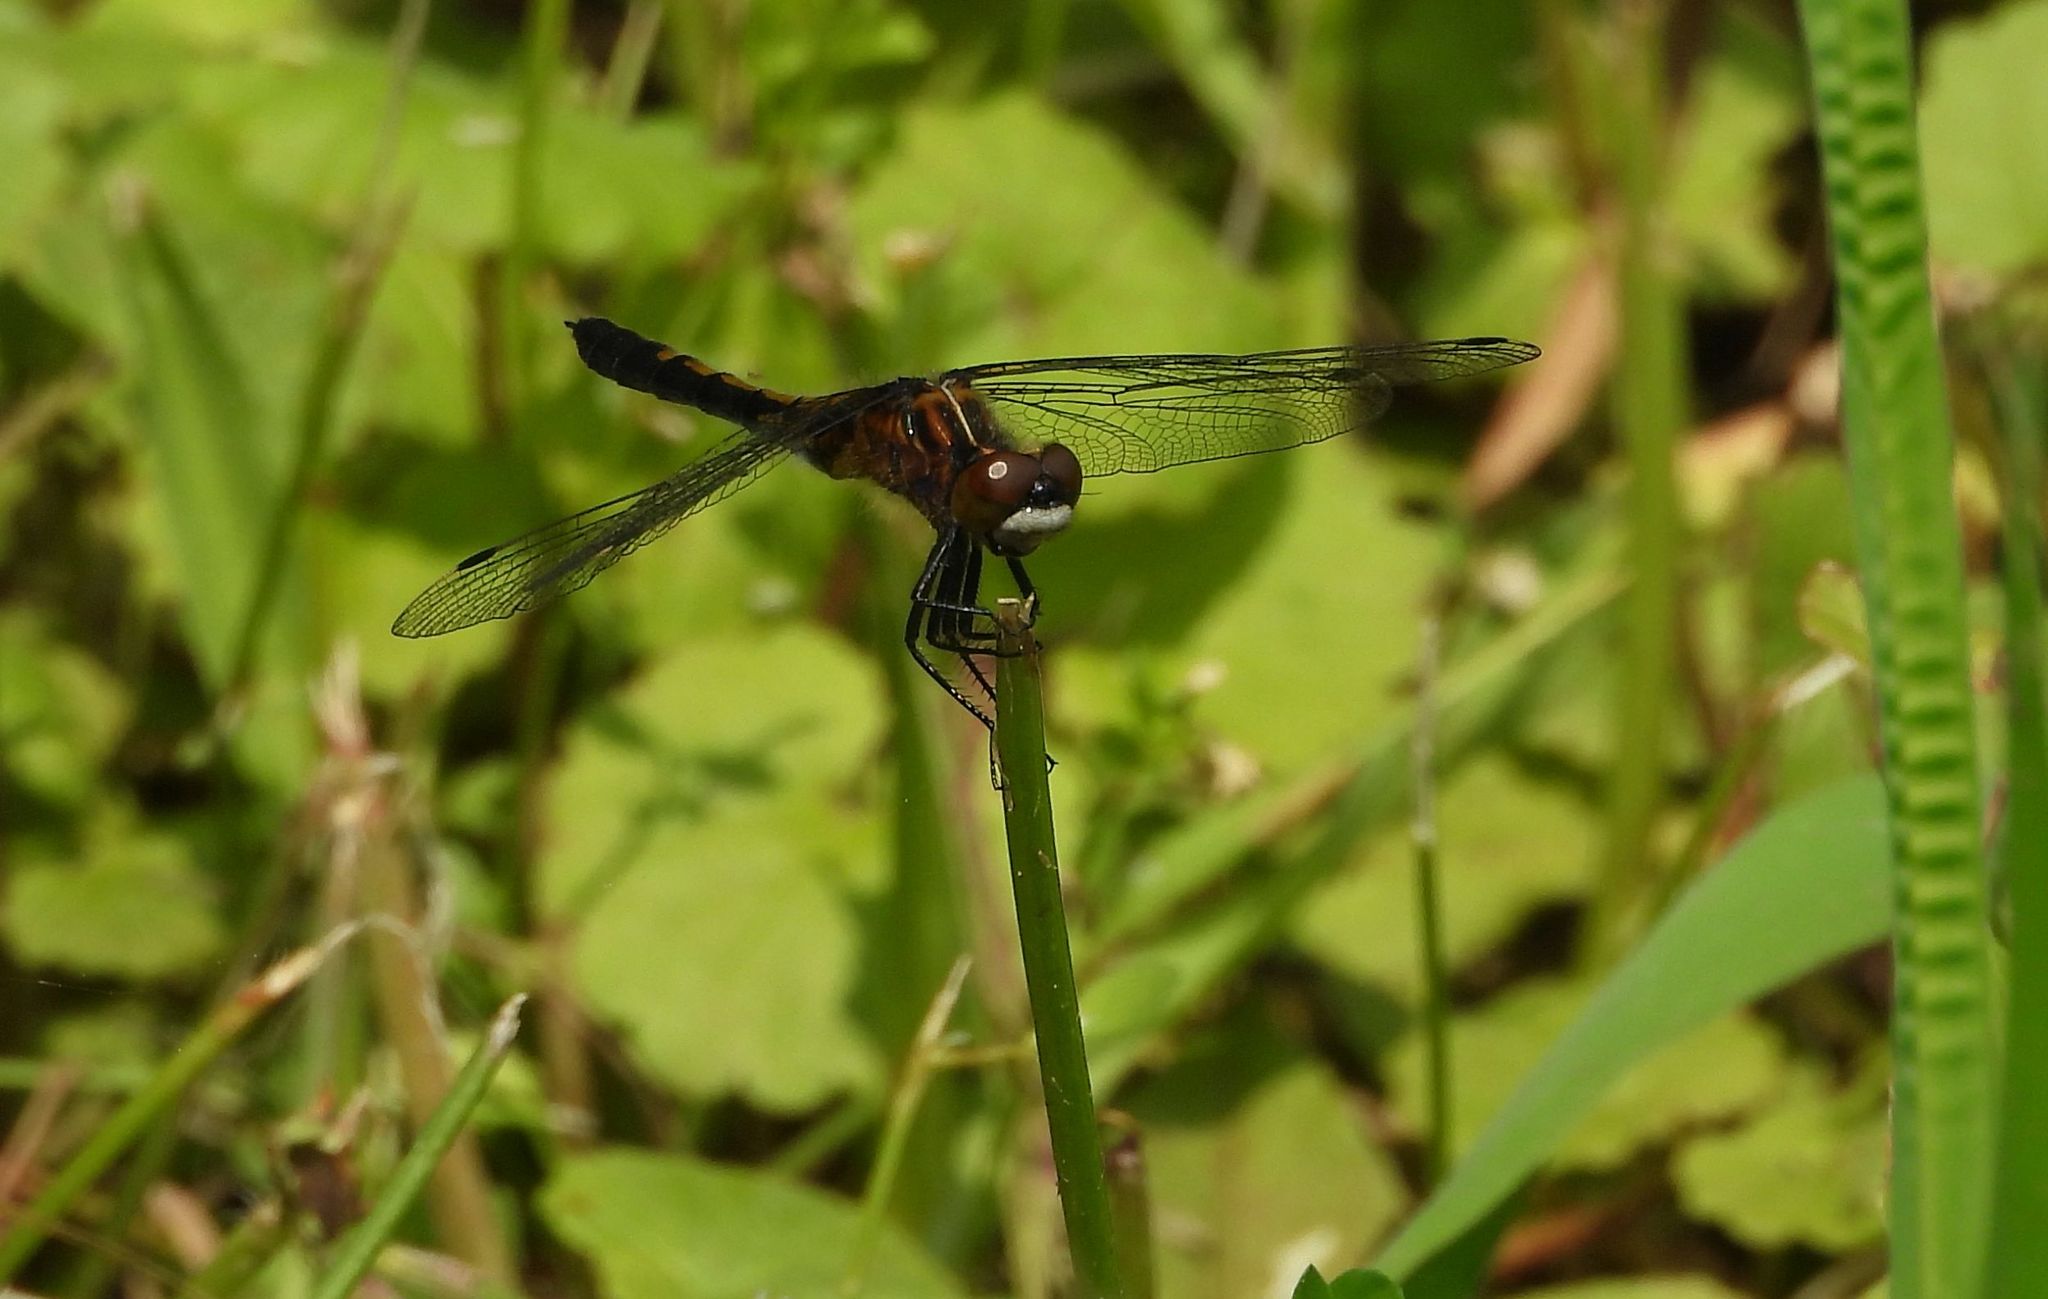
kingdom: Animalia
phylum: Arthropoda
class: Insecta
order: Odonata
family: Libellulidae
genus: Leucorrhinia
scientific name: Leucorrhinia intacta
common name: Dot-tailed whiteface
